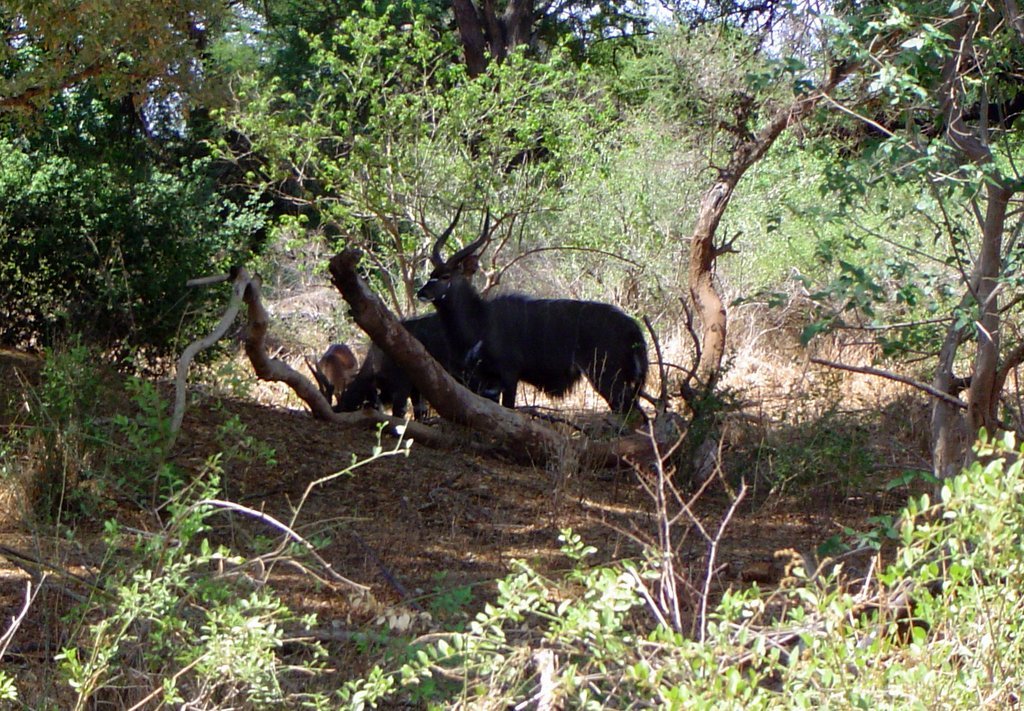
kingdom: Animalia
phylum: Chordata
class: Mammalia
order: Artiodactyla
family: Bovidae
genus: Tragelaphus
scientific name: Tragelaphus angasii
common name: Nyala
